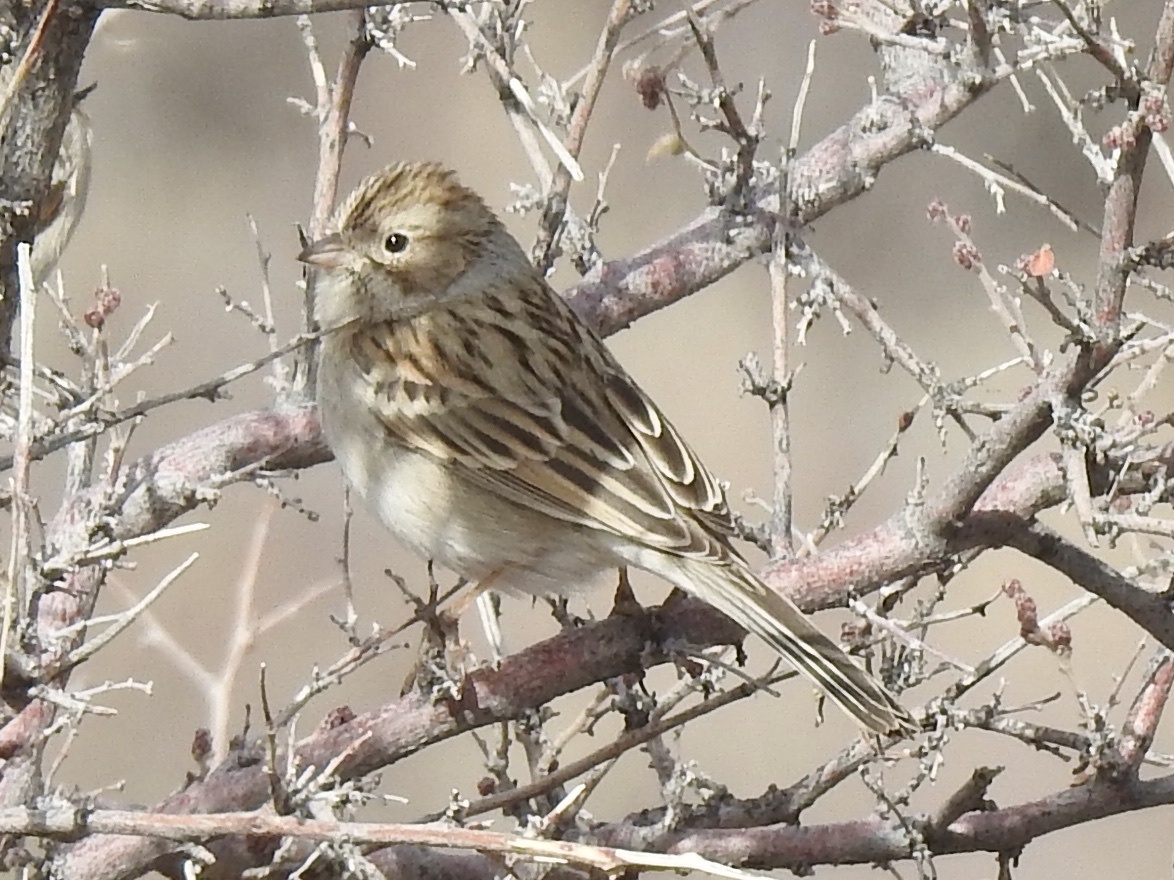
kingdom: Animalia
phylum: Chordata
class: Aves
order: Passeriformes
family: Passerellidae
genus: Spizella
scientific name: Spizella breweri
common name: Brewer's sparrow
